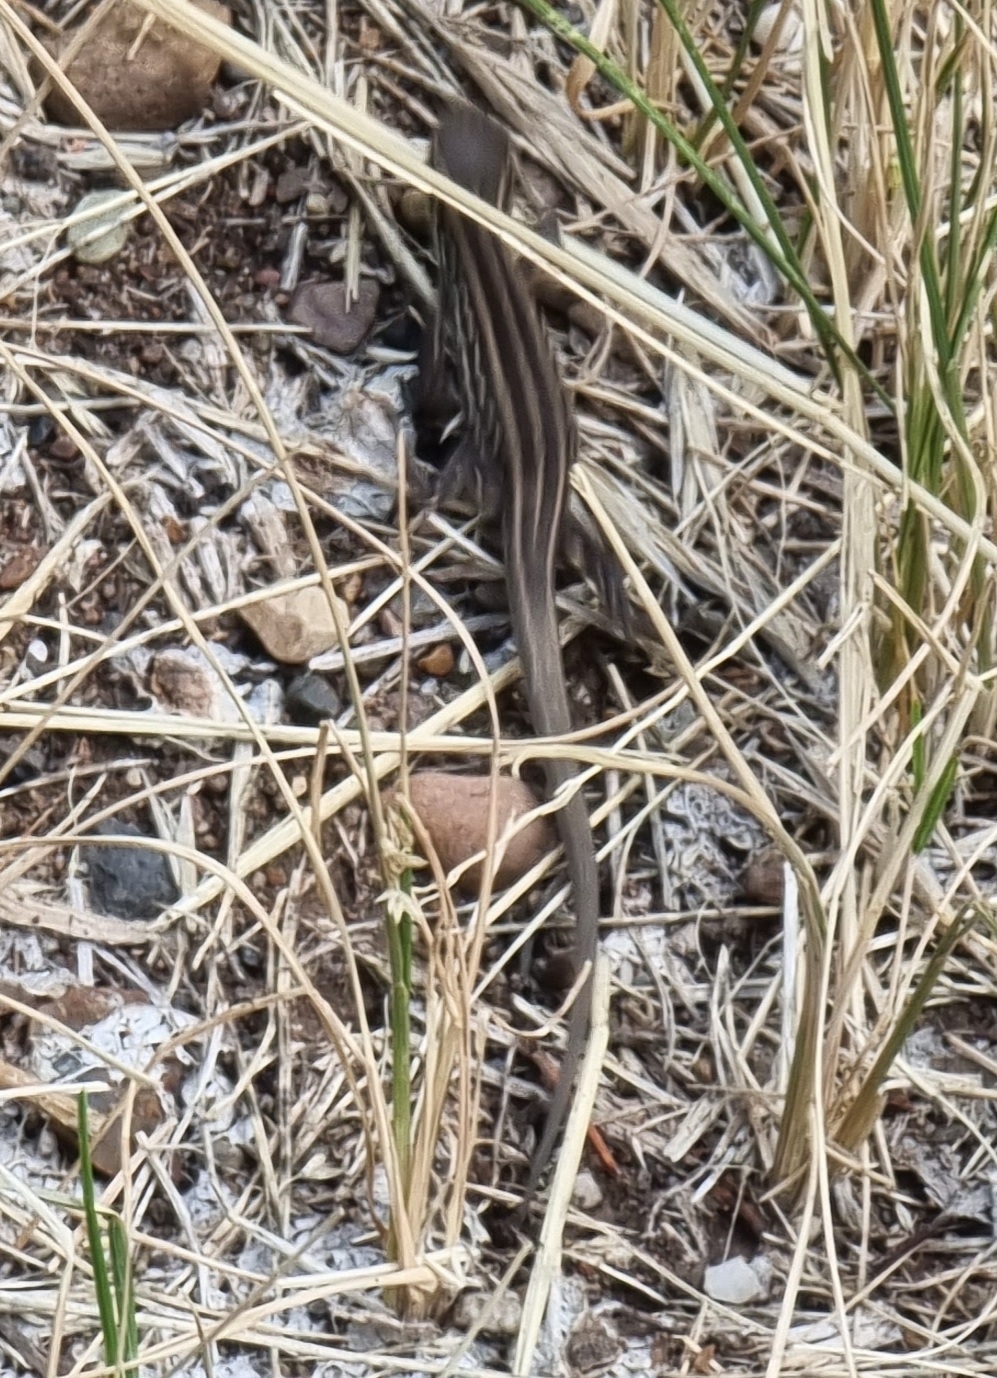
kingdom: Animalia
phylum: Chordata
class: Squamata
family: Lacertidae
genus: Lacerta
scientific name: Lacerta agilis
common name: Sand lizard
